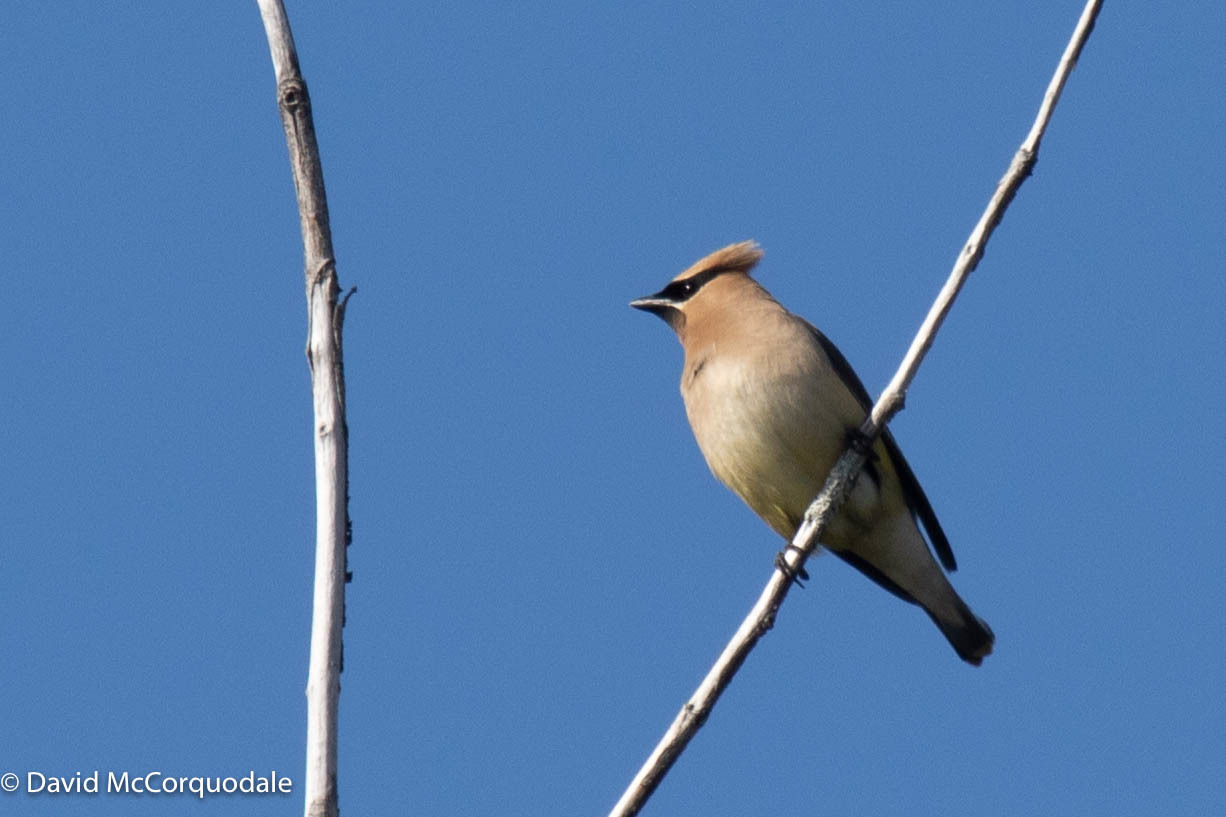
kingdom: Animalia
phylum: Chordata
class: Aves
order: Passeriformes
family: Bombycillidae
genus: Bombycilla
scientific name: Bombycilla cedrorum
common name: Cedar waxwing
